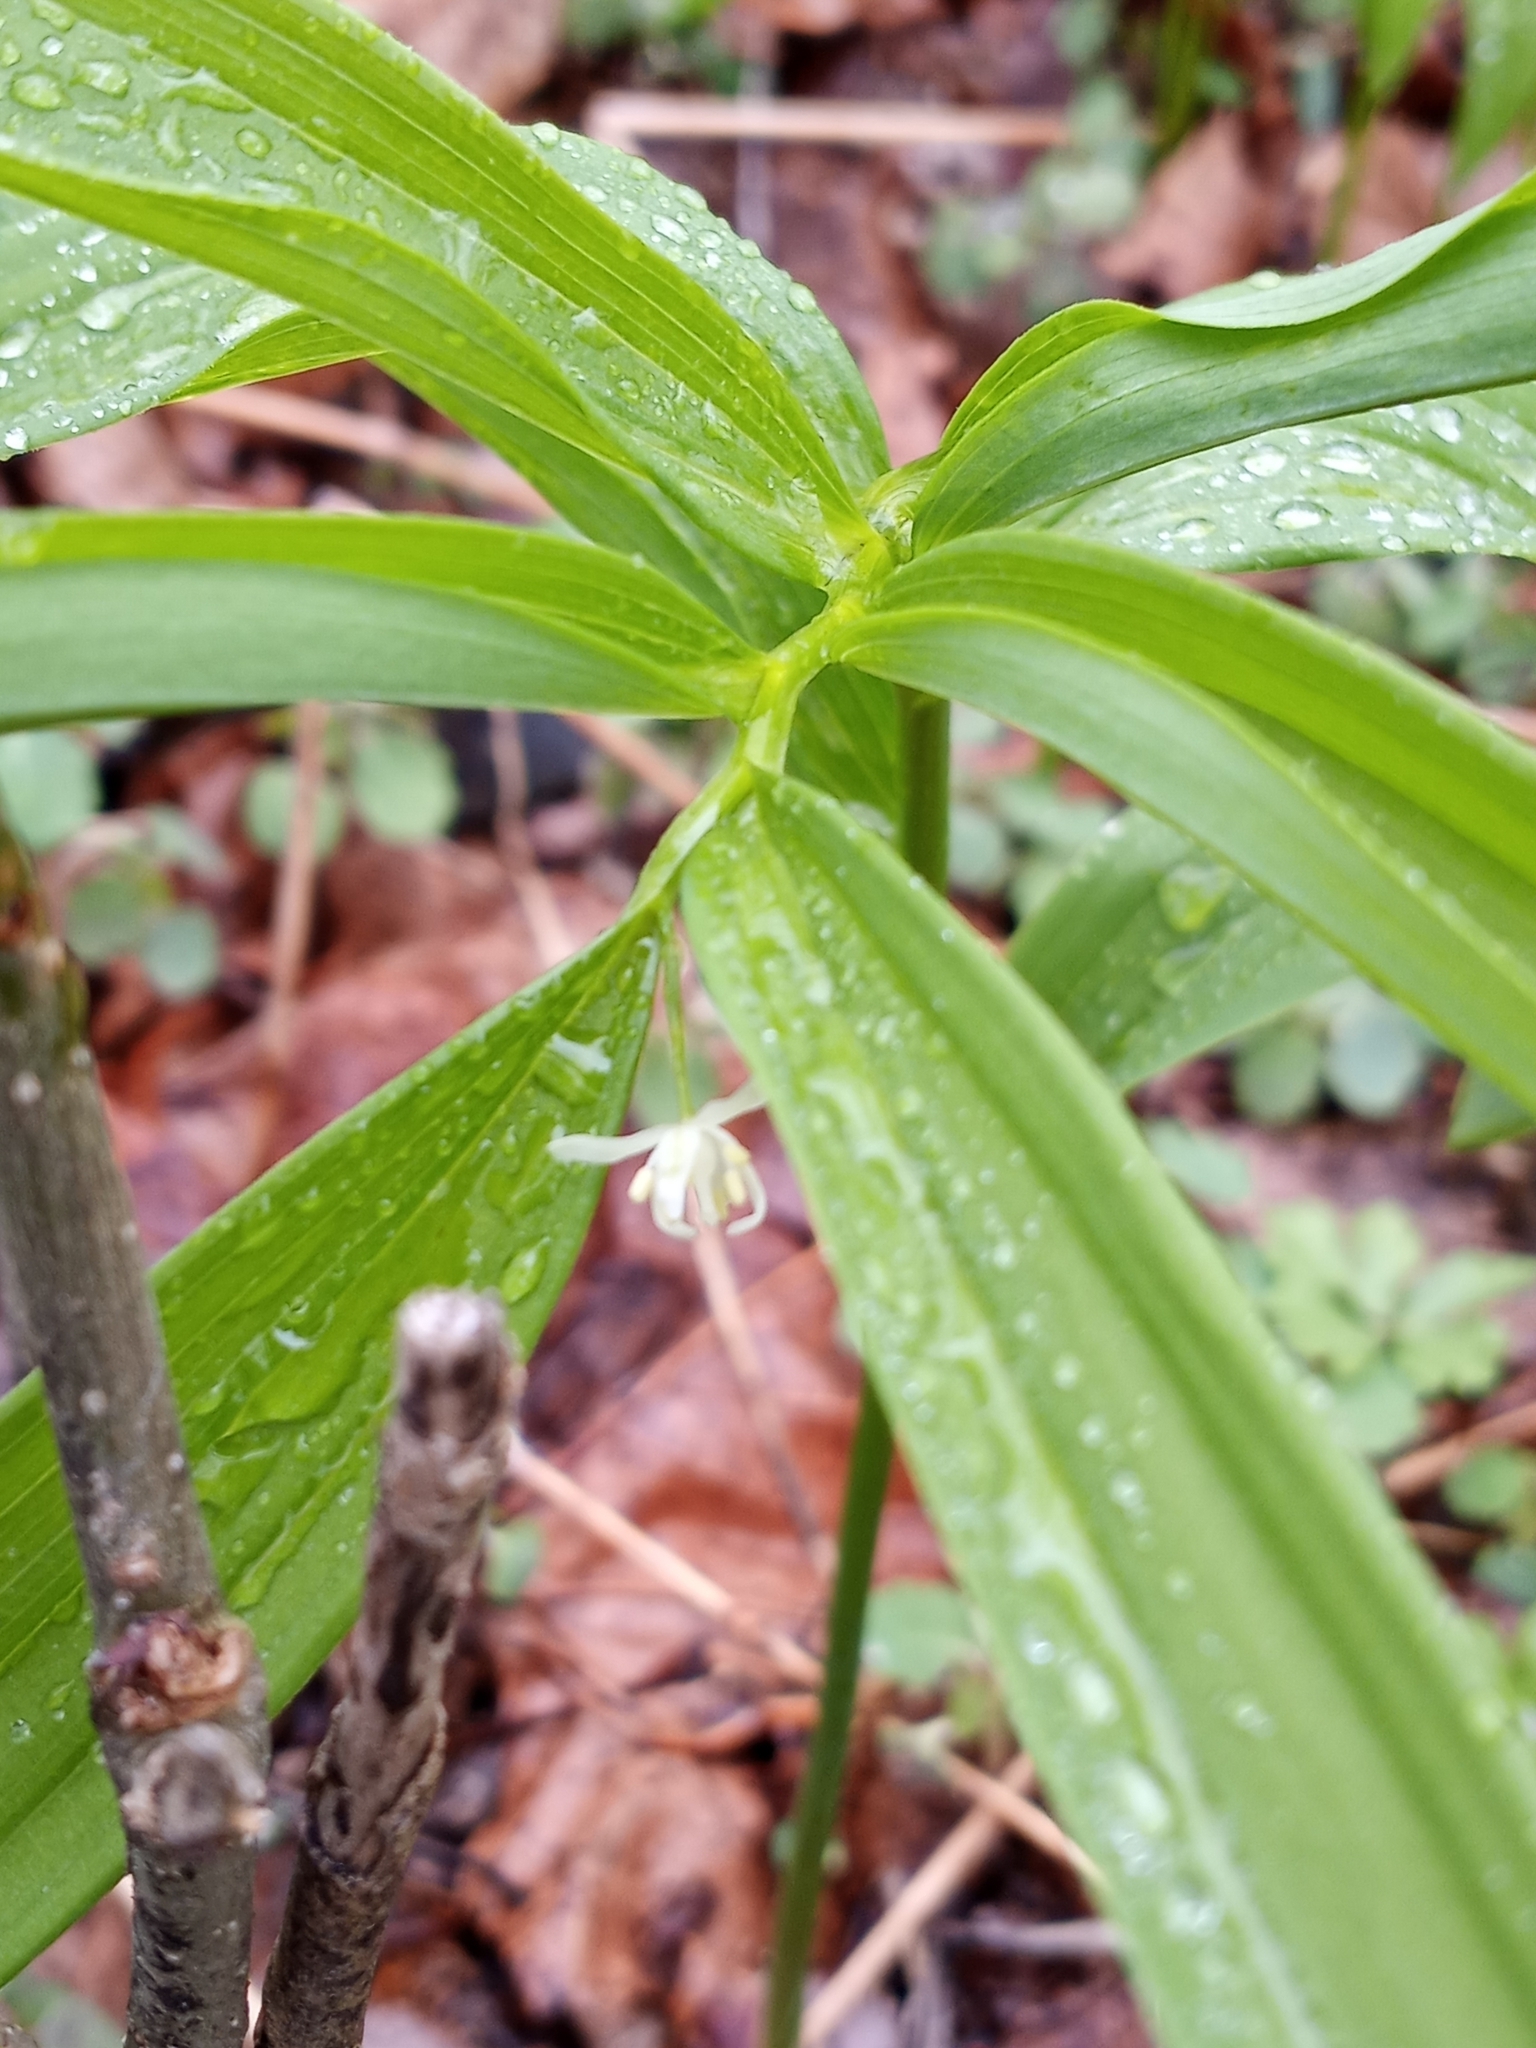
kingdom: Plantae
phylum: Tracheophyta
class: Liliopsida
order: Asparagales
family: Asparagaceae
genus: Maianthemum
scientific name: Maianthemum stellatum
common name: Little false solomon's seal
